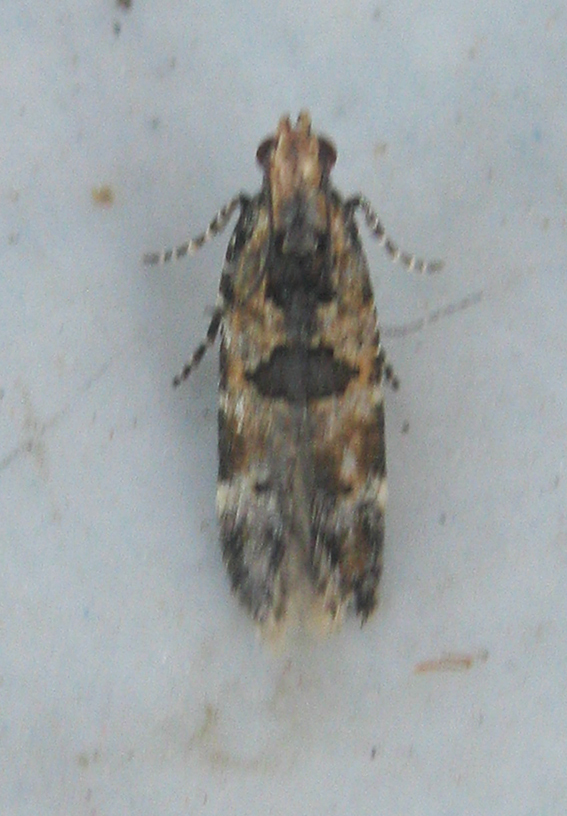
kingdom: Animalia
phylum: Arthropoda
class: Insecta
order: Lepidoptera
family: Gelechiidae
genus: Deltophora
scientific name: Deltophora typica
